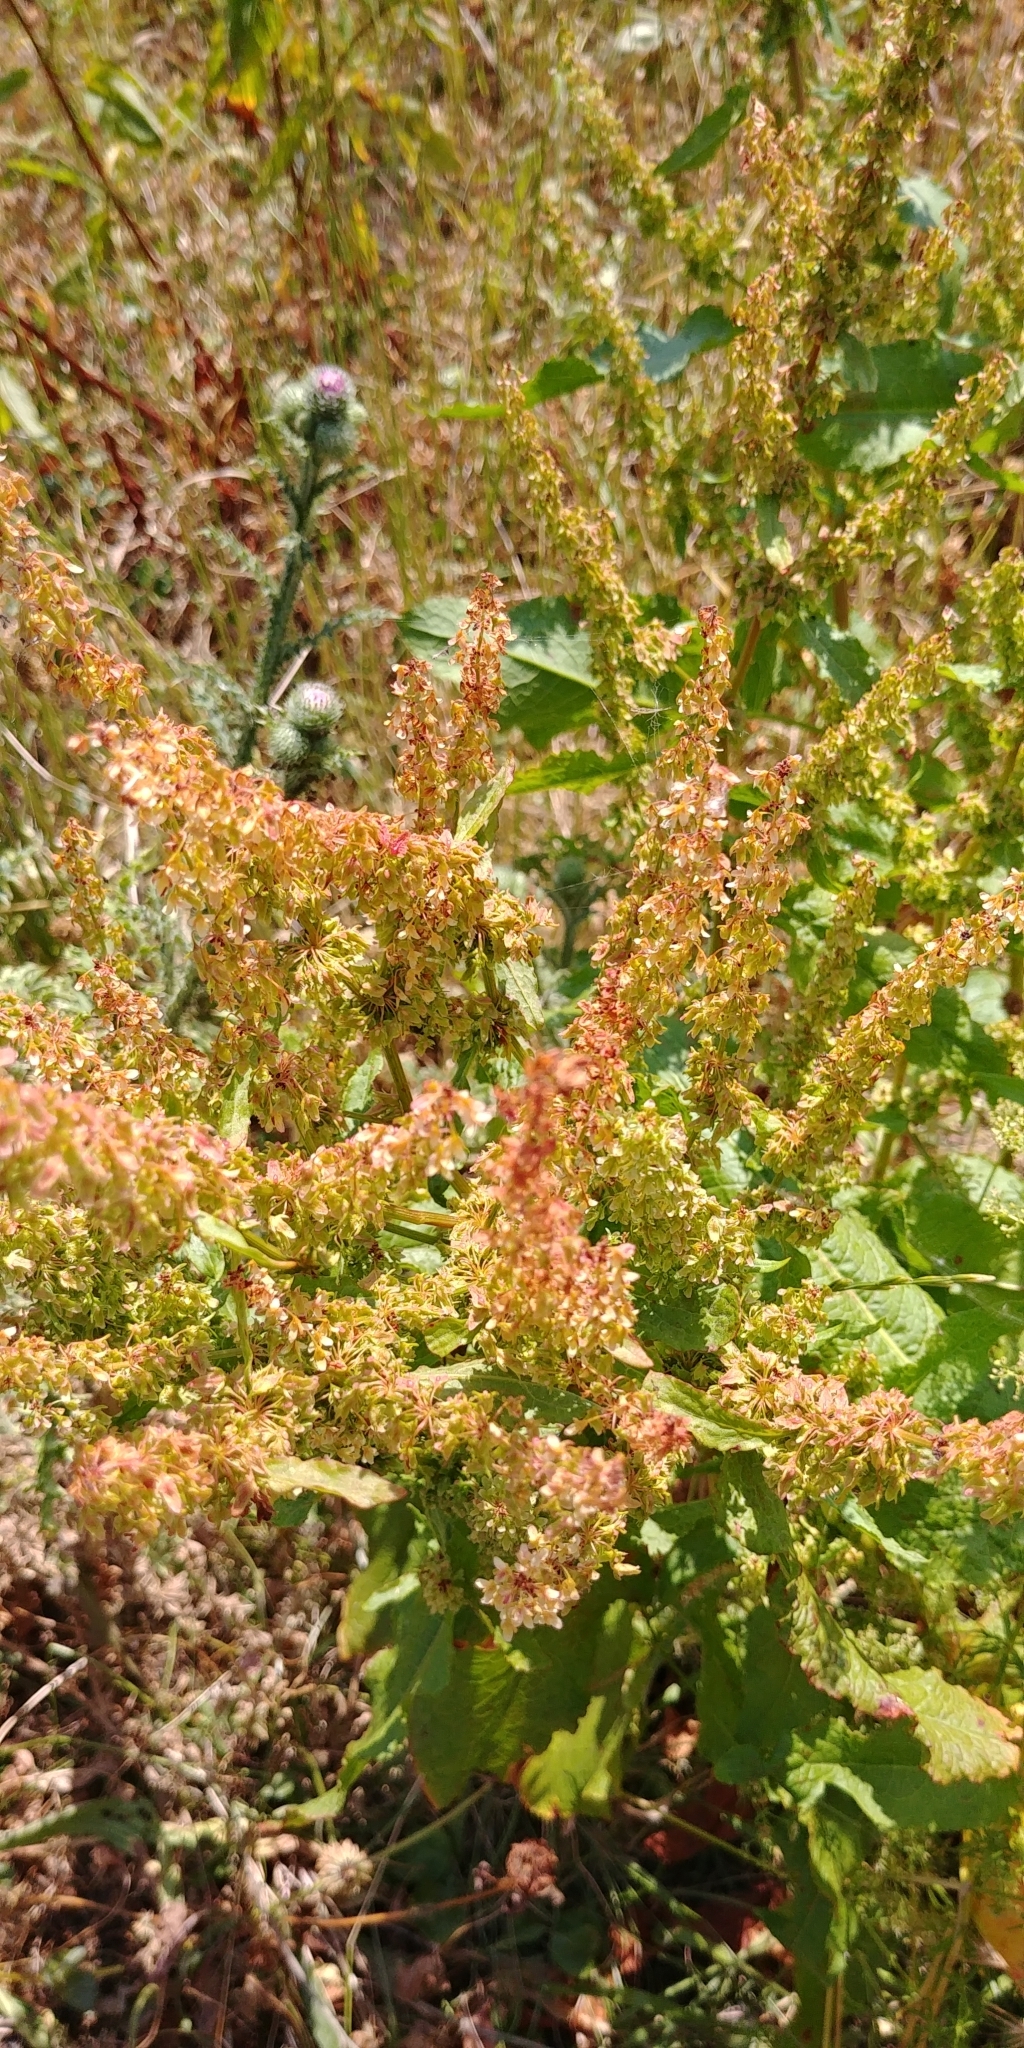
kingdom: Plantae
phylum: Tracheophyta
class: Magnoliopsida
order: Caryophyllales
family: Polygonaceae
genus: Rumex
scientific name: Rumex obtusifolius
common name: Bitter dock
